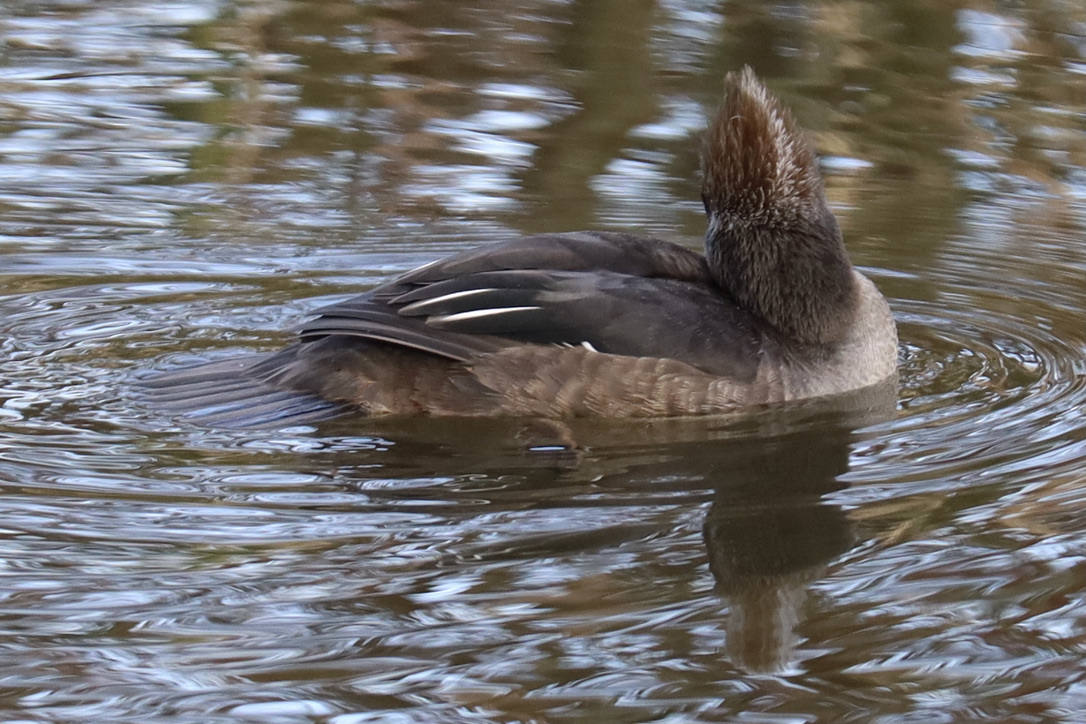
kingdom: Animalia
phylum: Chordata
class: Aves
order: Anseriformes
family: Anatidae
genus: Lophodytes
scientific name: Lophodytes cucullatus
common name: Hooded merganser
